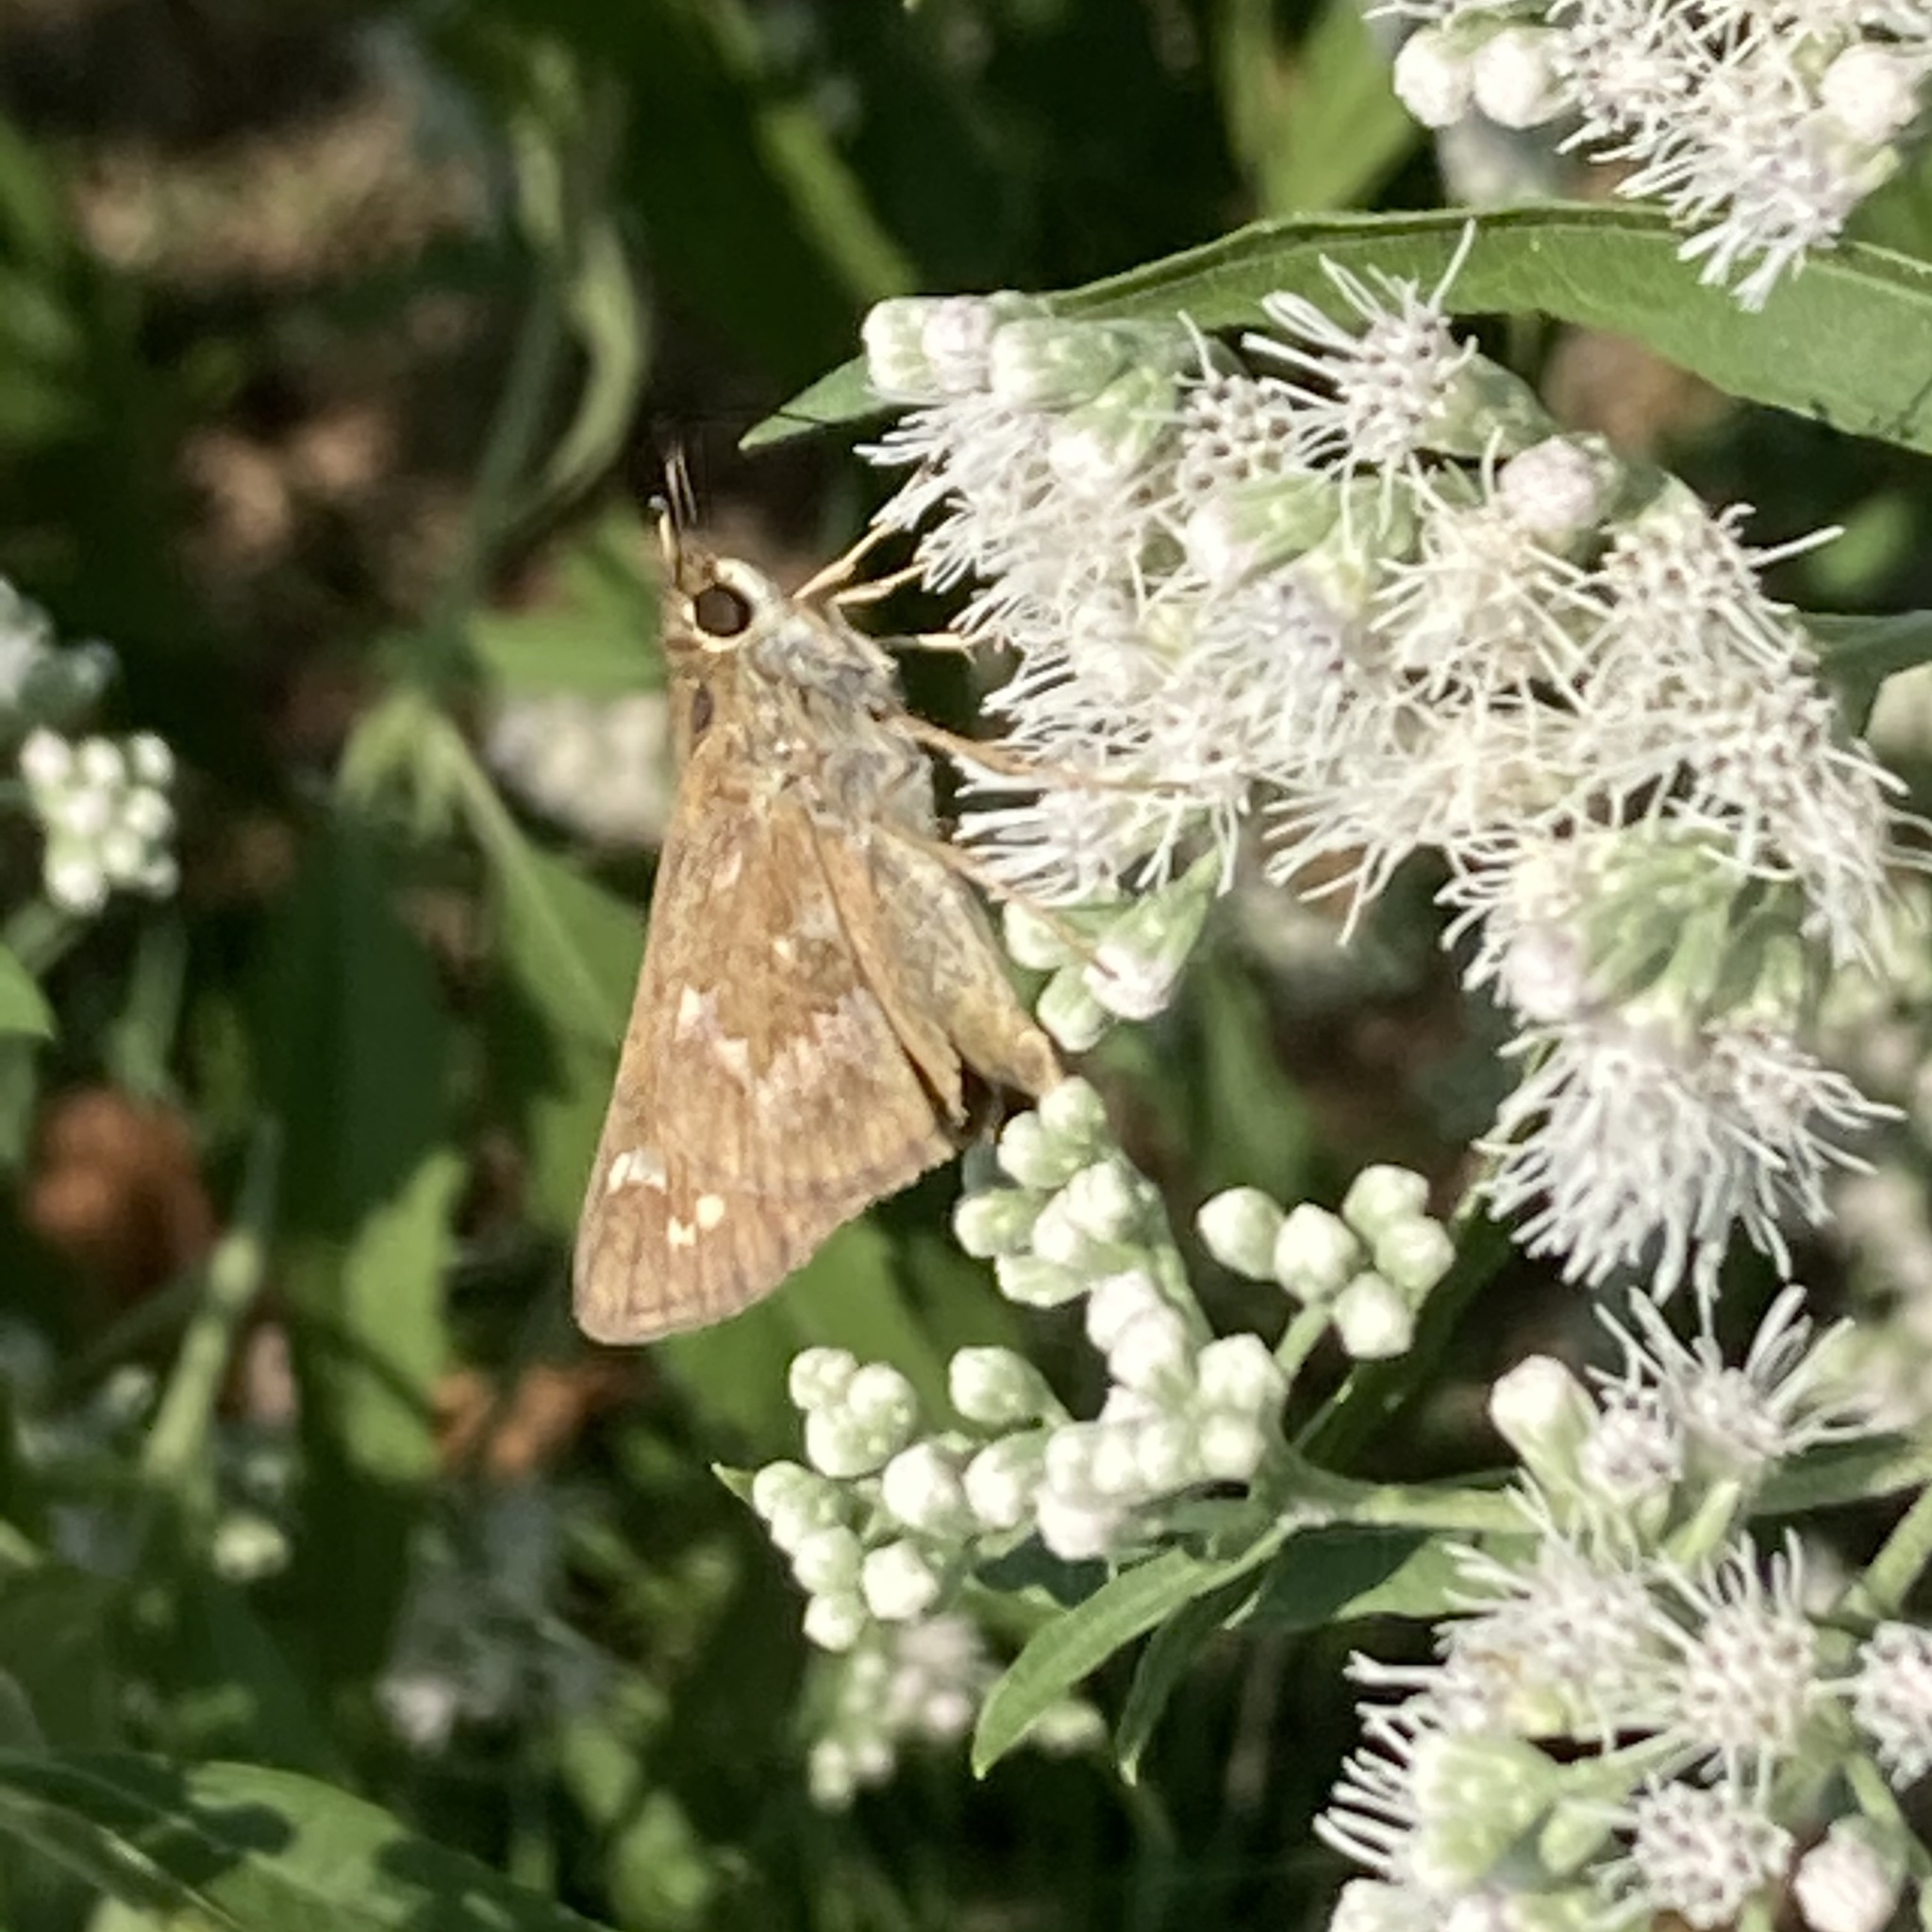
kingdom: Animalia
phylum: Arthropoda
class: Insecta
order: Lepidoptera
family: Hesperiidae
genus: Atalopedes
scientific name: Atalopedes
